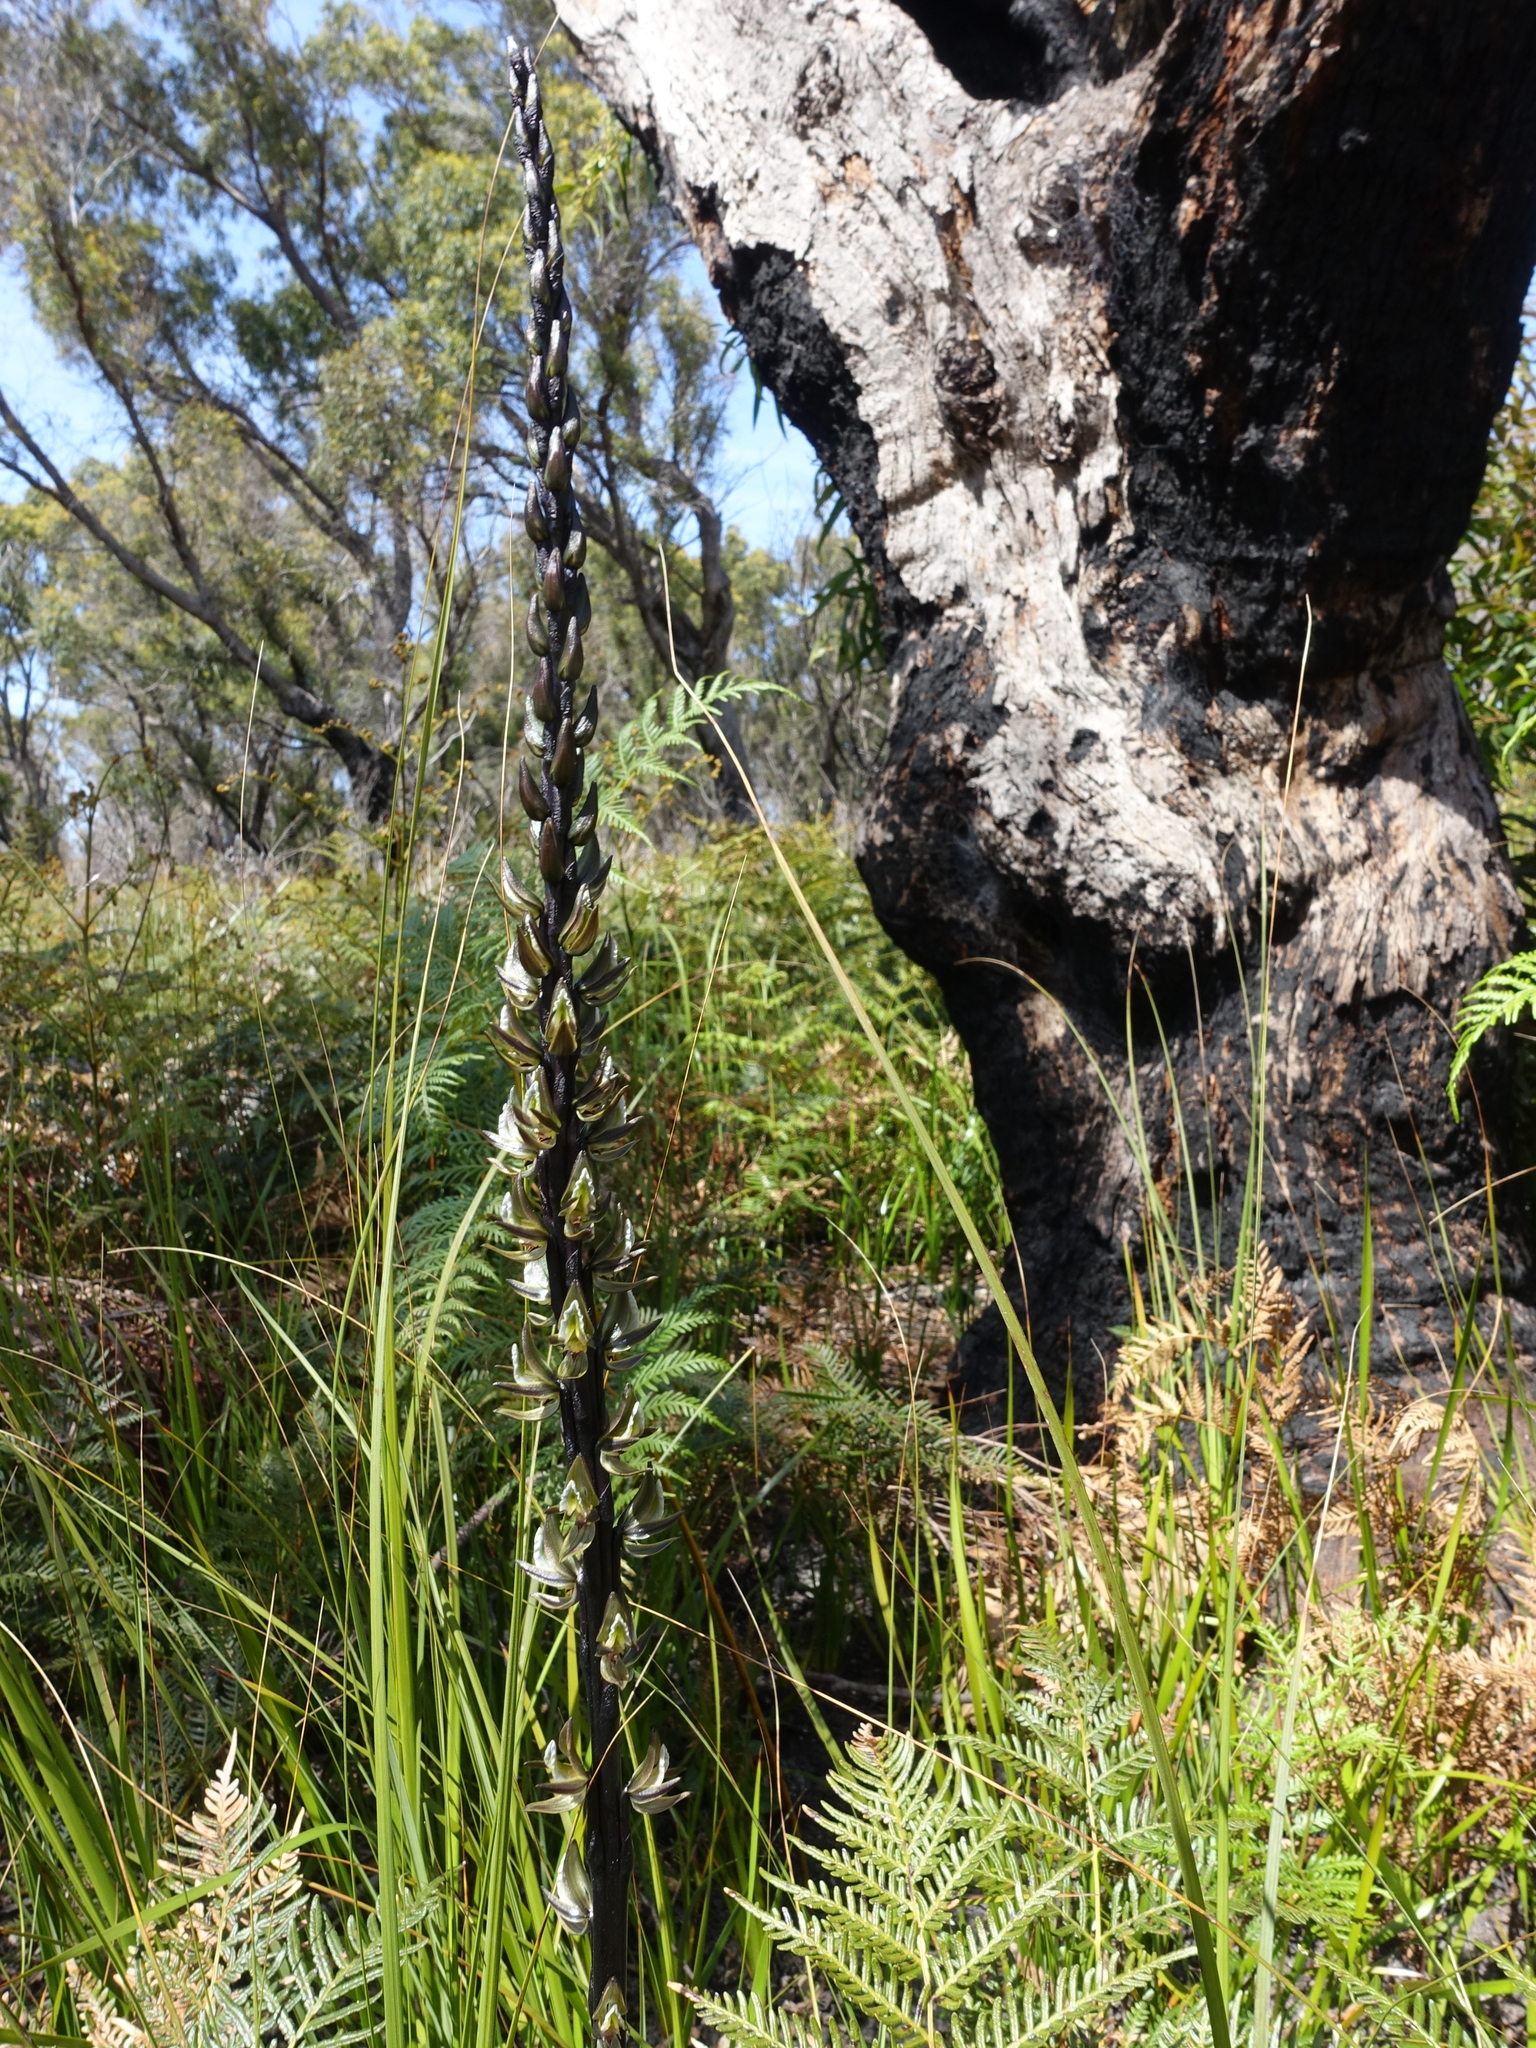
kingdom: Plantae
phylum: Tracheophyta
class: Liliopsida
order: Asparagales
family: Orchidaceae
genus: Prasophyllum
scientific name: Prasophyllum elatum
